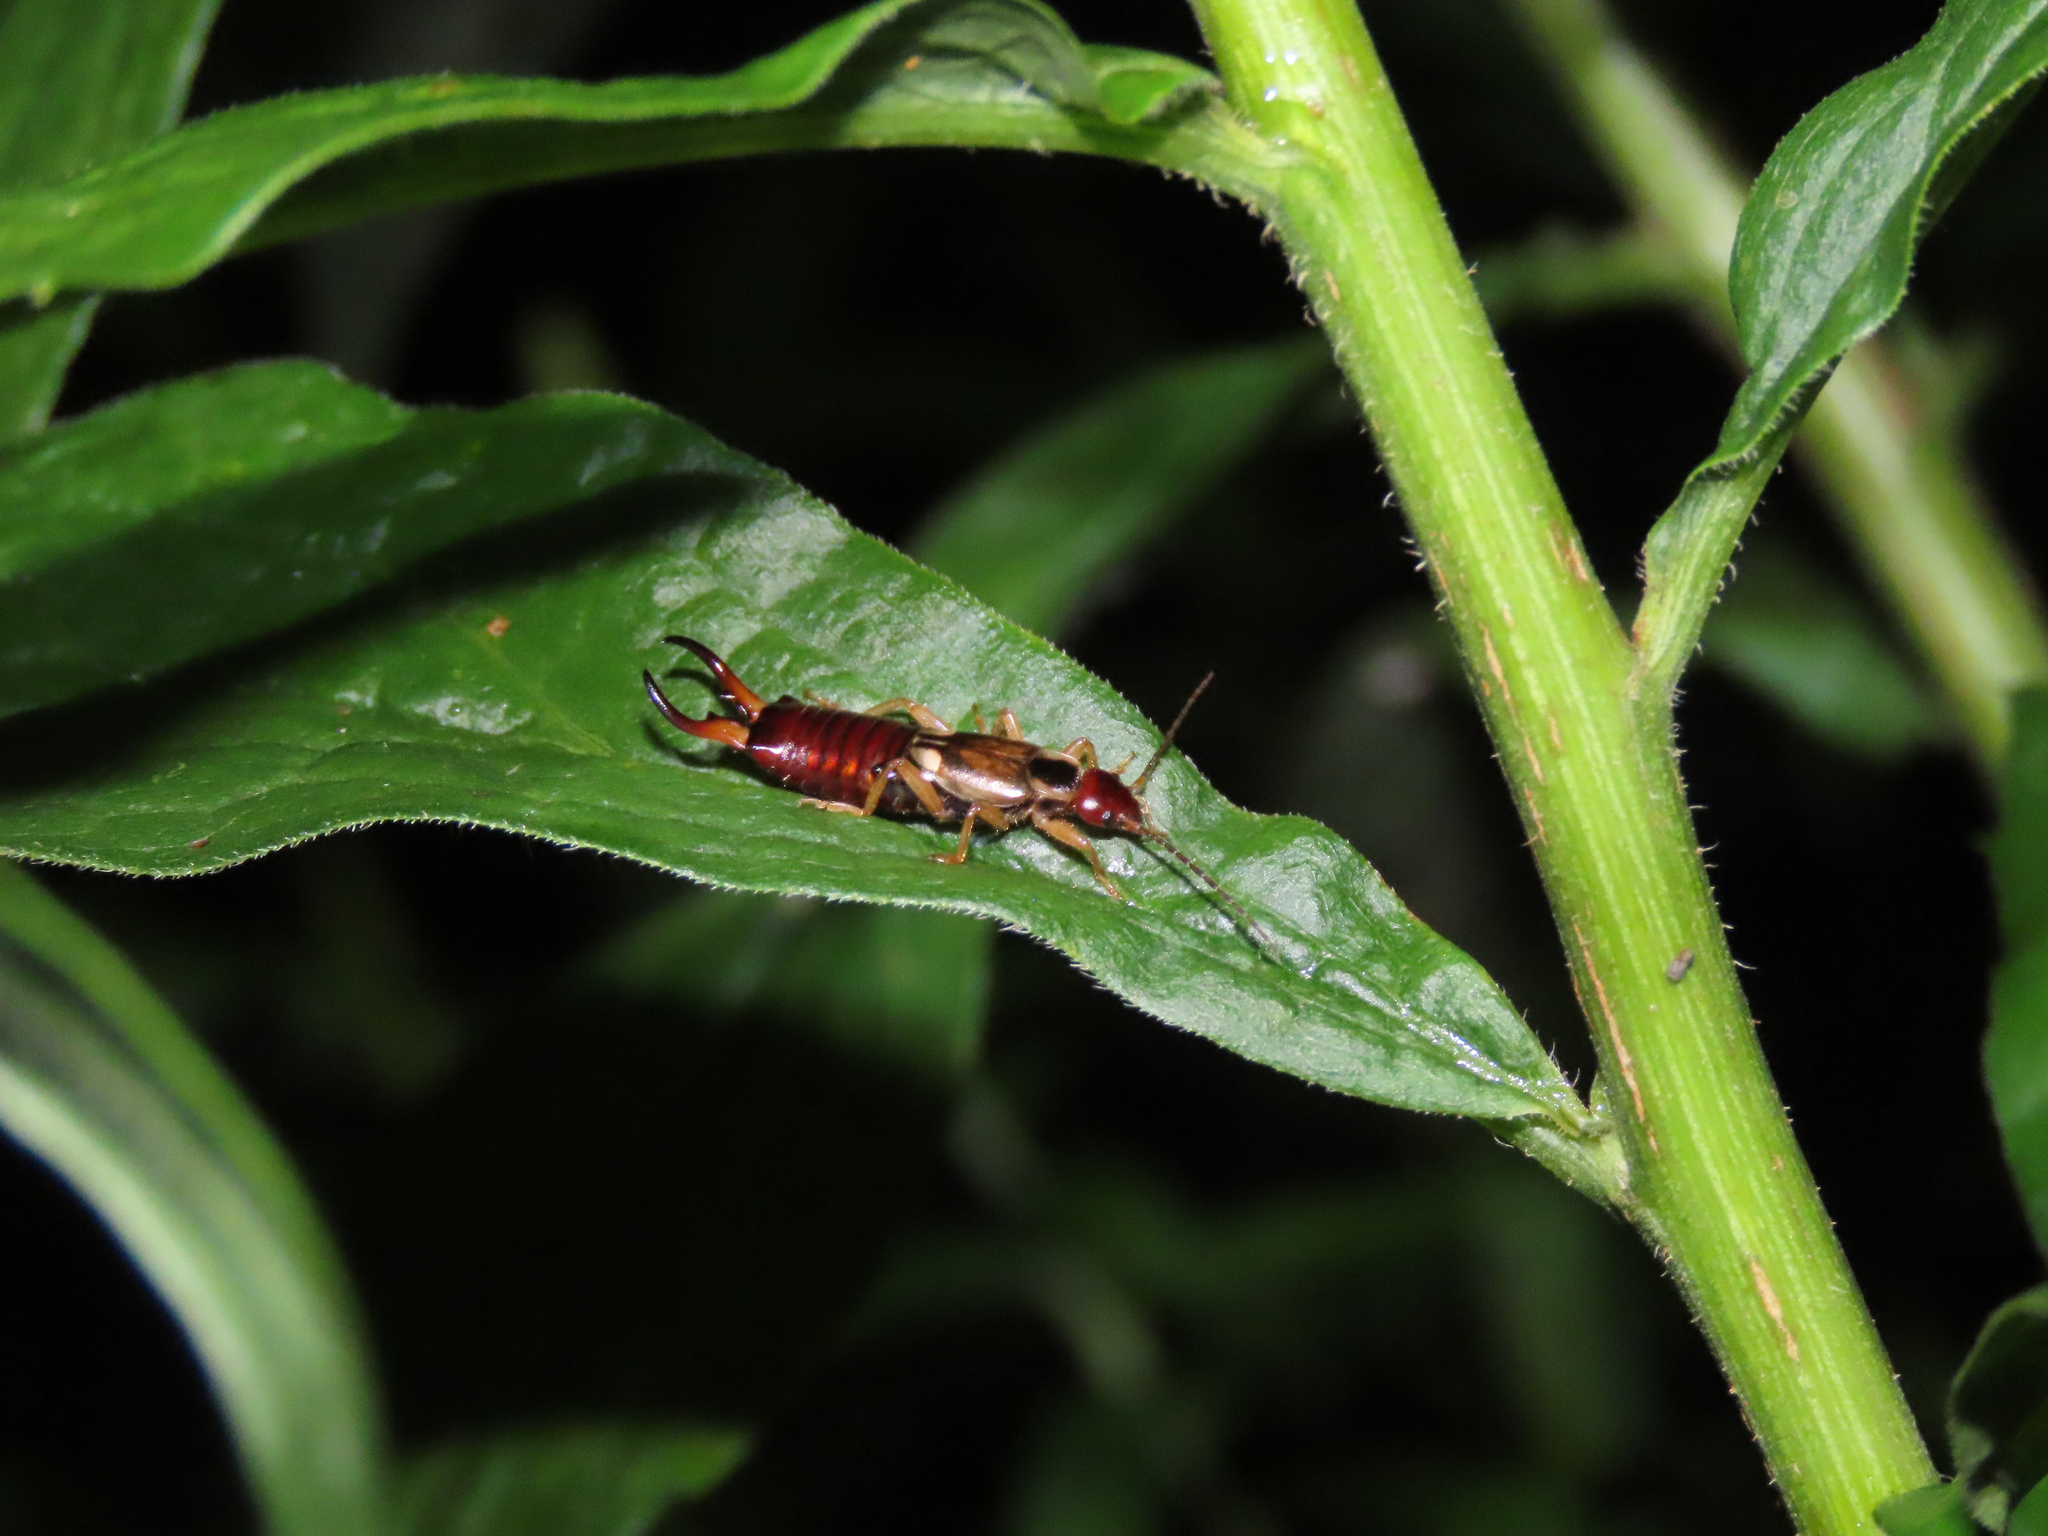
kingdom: Animalia
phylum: Arthropoda
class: Insecta
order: Dermaptera
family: Forficulidae
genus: Forficula
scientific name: Forficula
